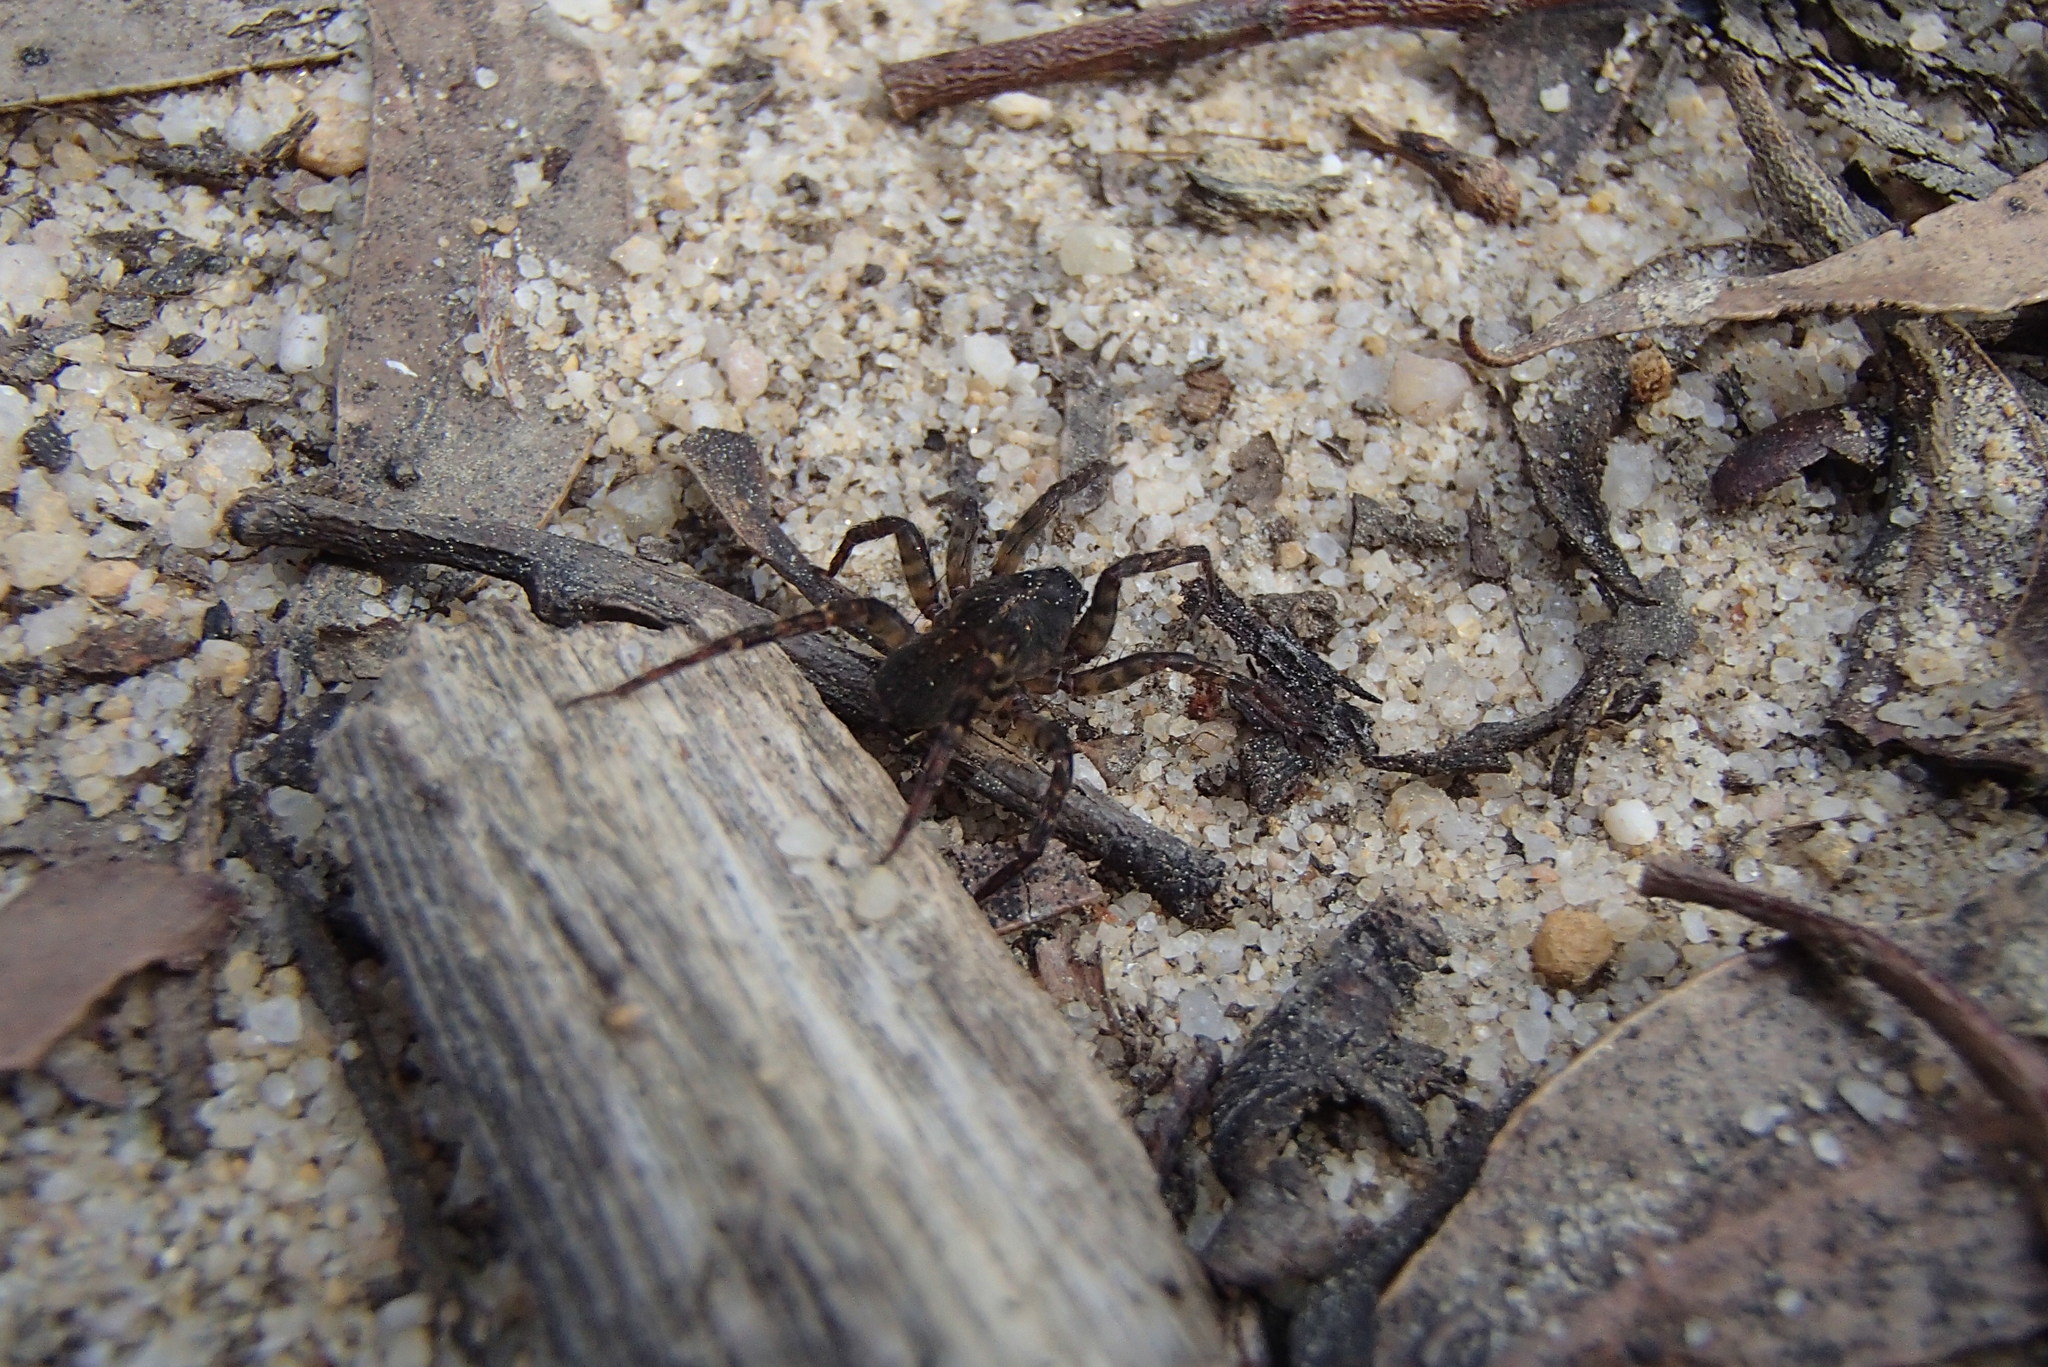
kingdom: Animalia
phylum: Arthropoda
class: Arachnida
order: Araneae
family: Amaurobiidae
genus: Storenosoma
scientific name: Storenosoma terraneum
